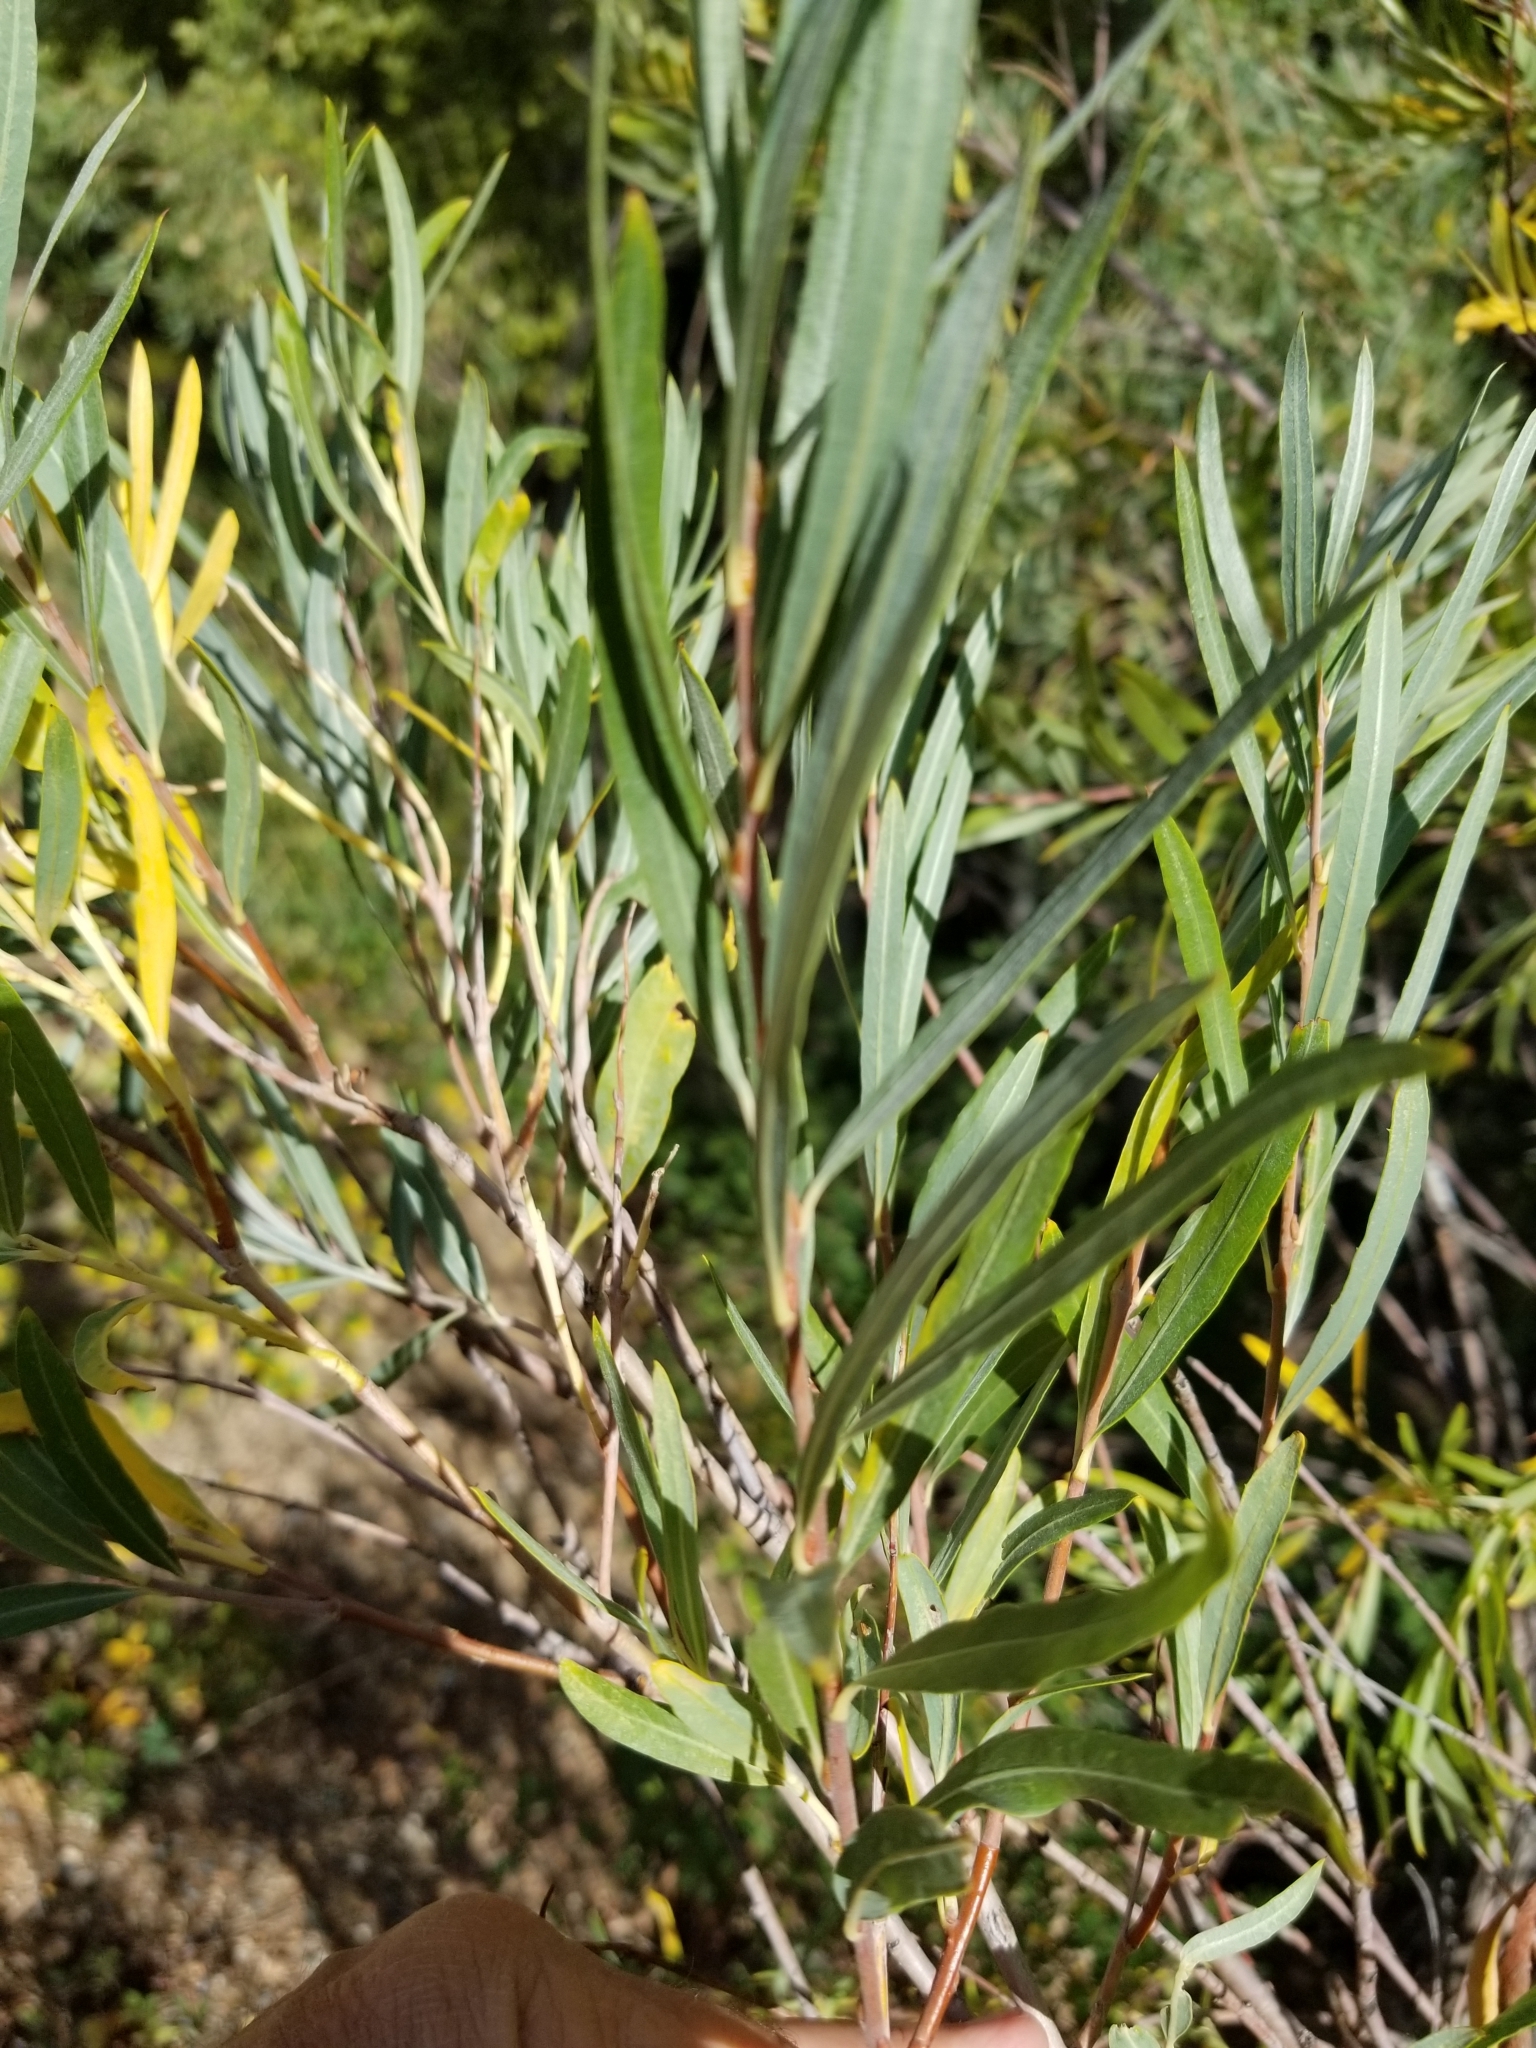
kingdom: Plantae
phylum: Tracheophyta
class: Magnoliopsida
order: Malpighiales
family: Salicaceae
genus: Salix
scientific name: Salix exigua
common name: Coyote willow
